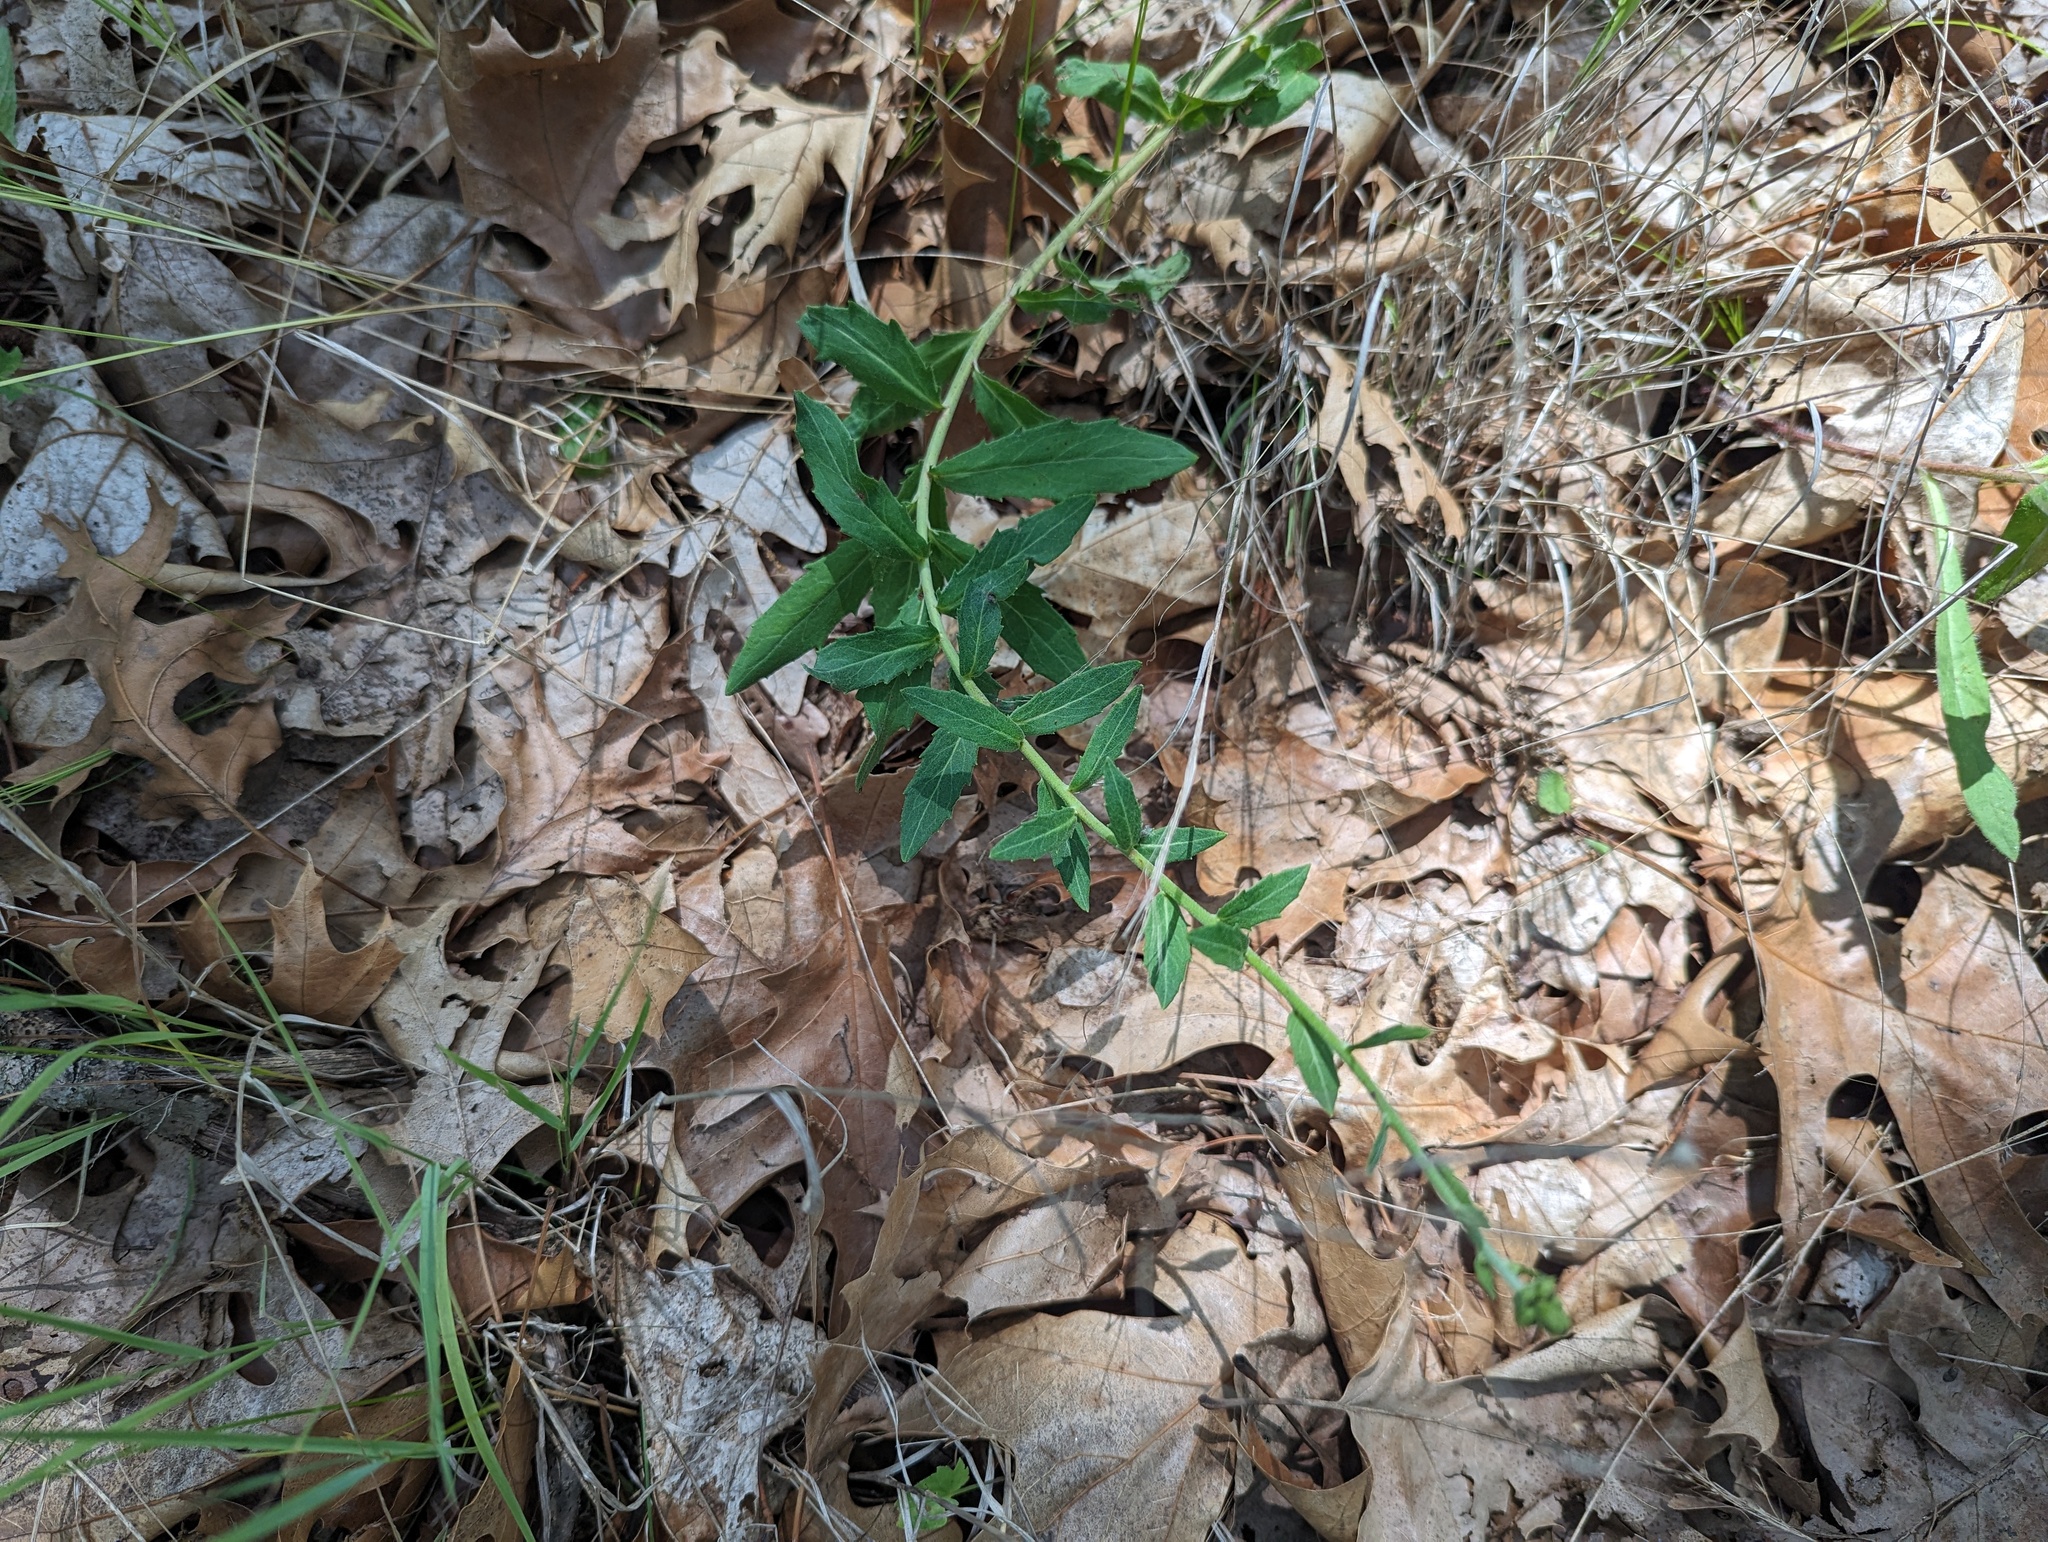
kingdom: Plantae
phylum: Tracheophyta
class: Magnoliopsida
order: Asterales
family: Asteraceae
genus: Hieracium
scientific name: Hieracium umbellatum
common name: Northern hawkweed
